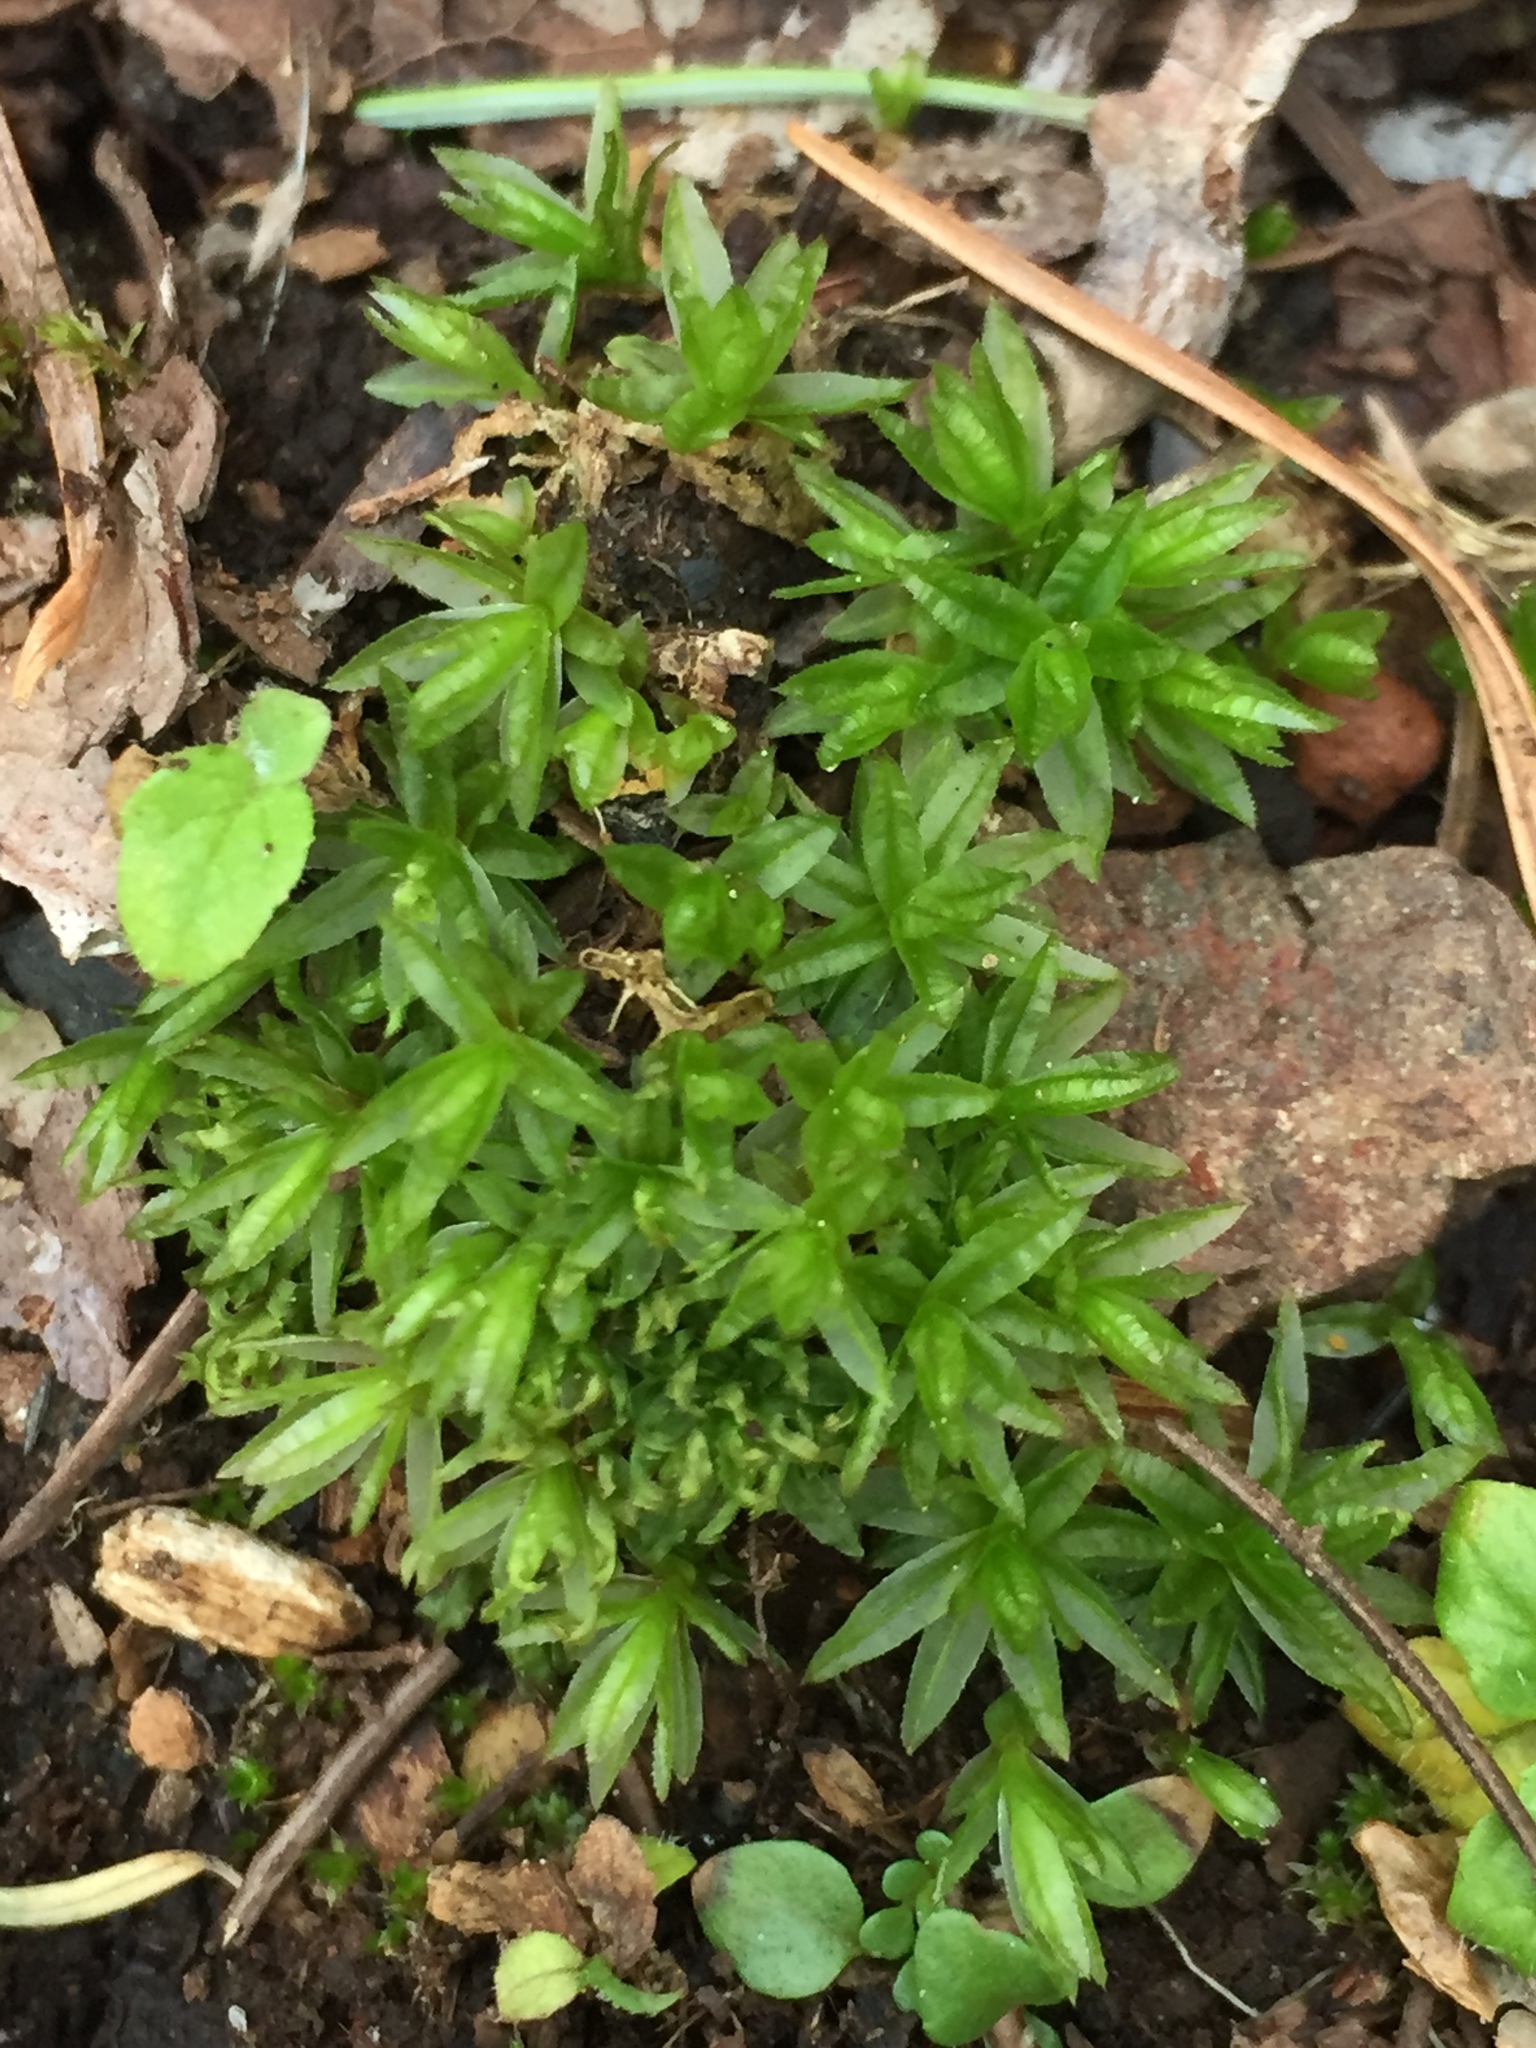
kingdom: Plantae
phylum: Bryophyta
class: Polytrichopsida
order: Polytrichales
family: Polytrichaceae
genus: Atrichum
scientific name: Atrichum undulatum
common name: Common smoothcap
